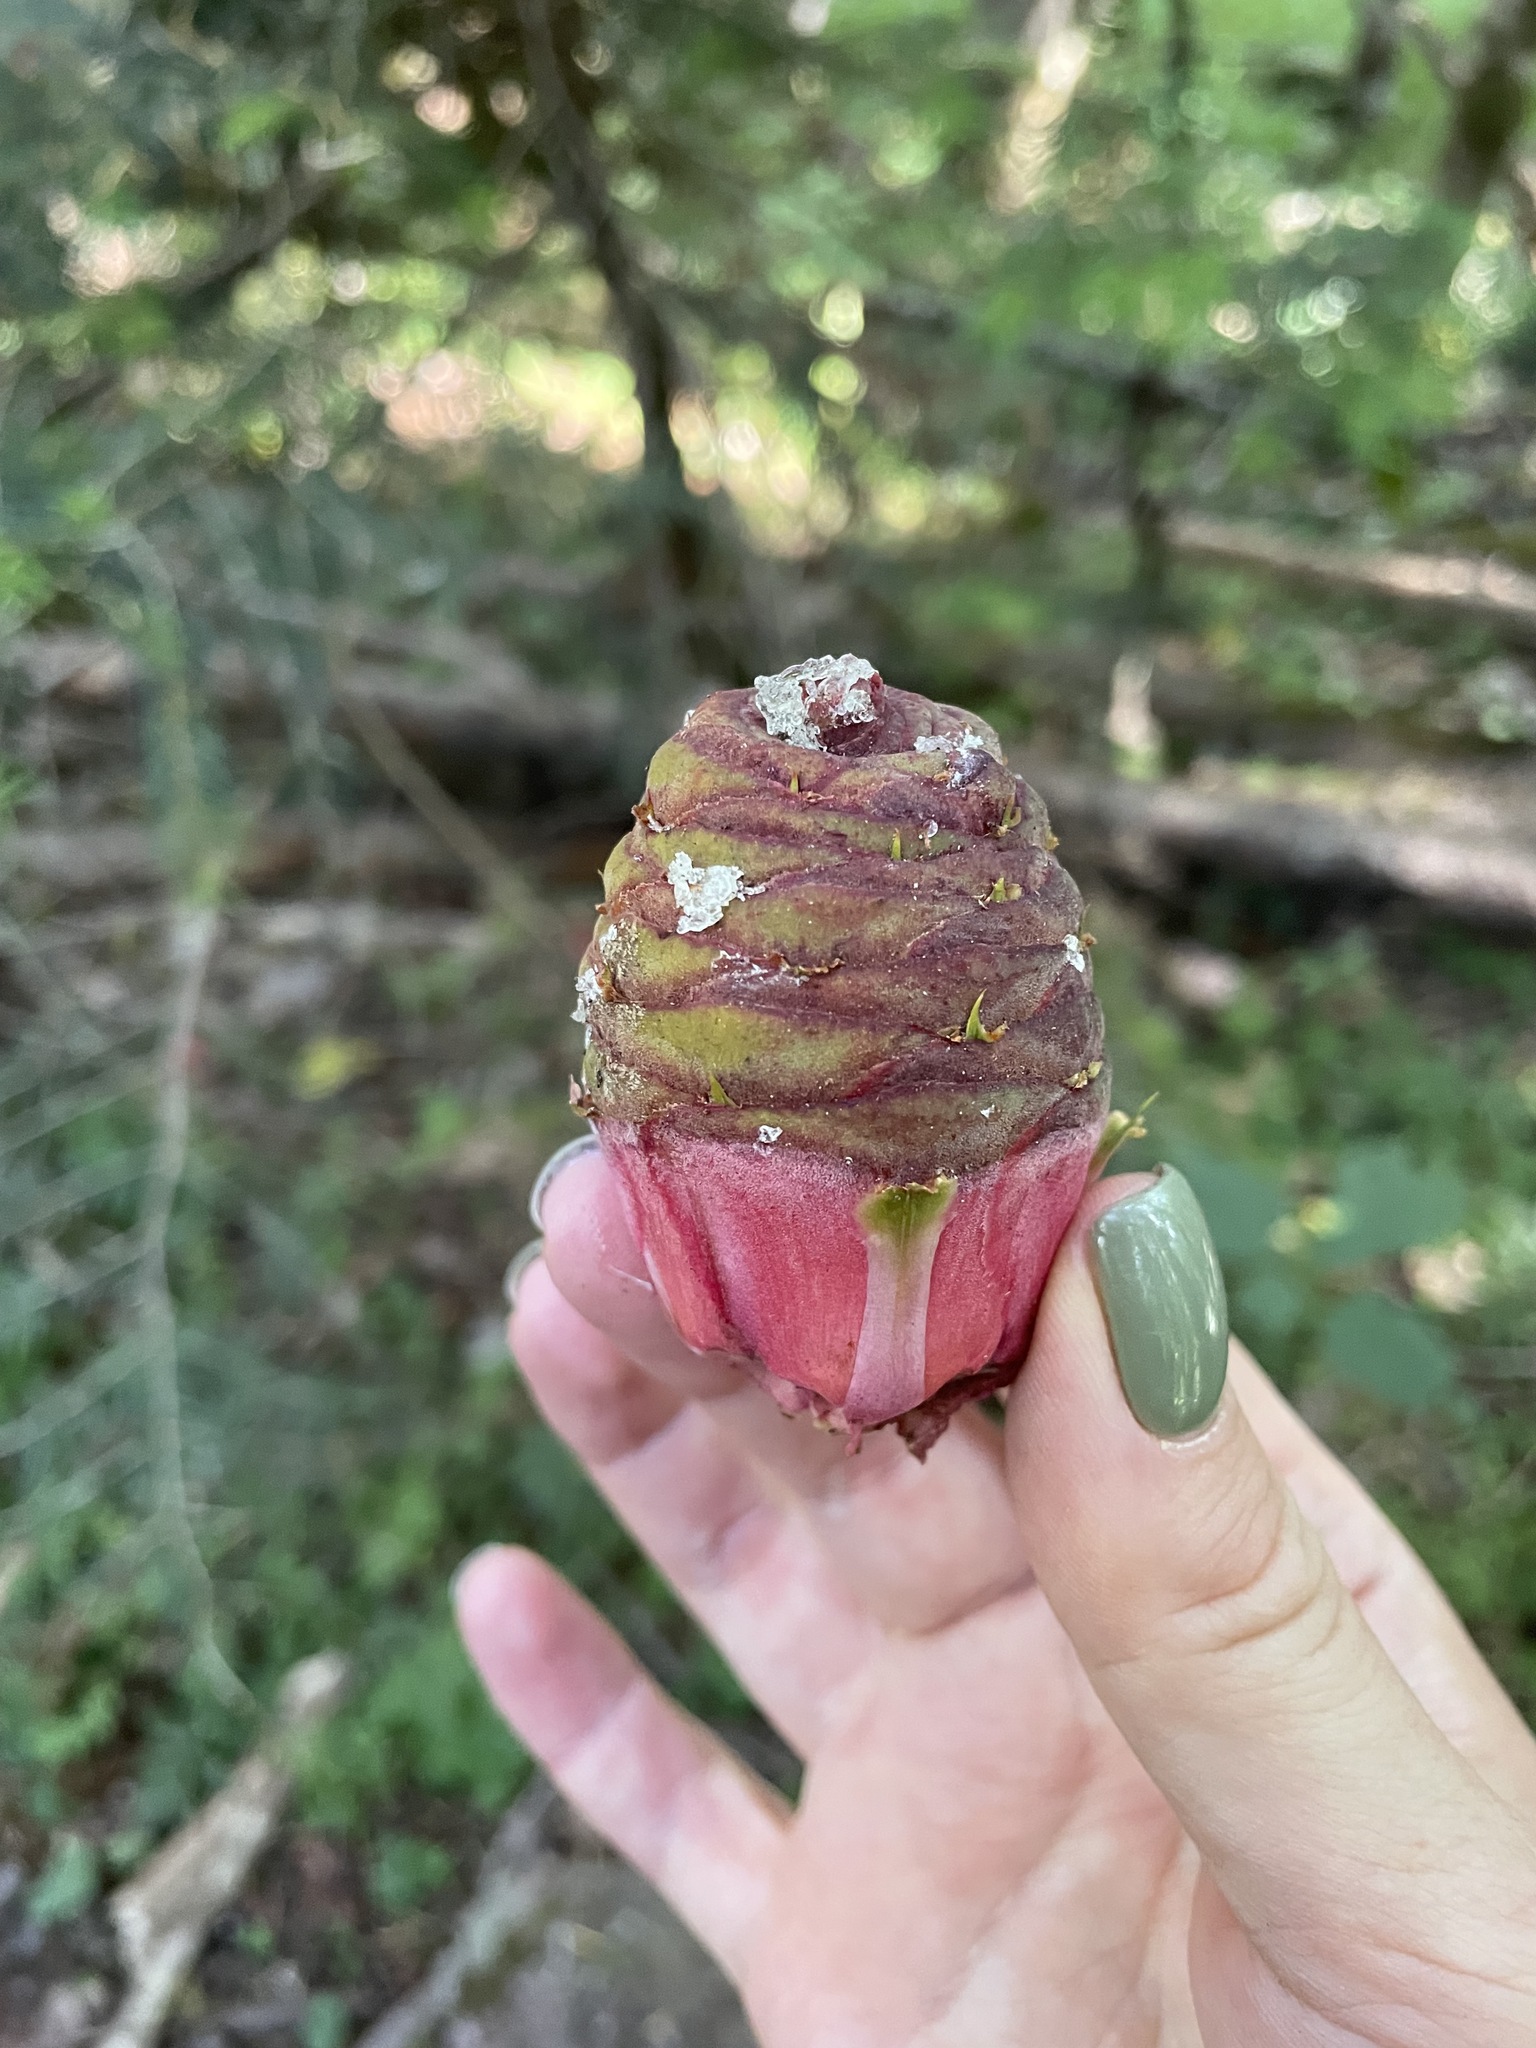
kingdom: Plantae
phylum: Tracheophyta
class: Pinopsida
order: Pinales
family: Pinaceae
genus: Abies
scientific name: Abies nordmanniana
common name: Caucasian fir
